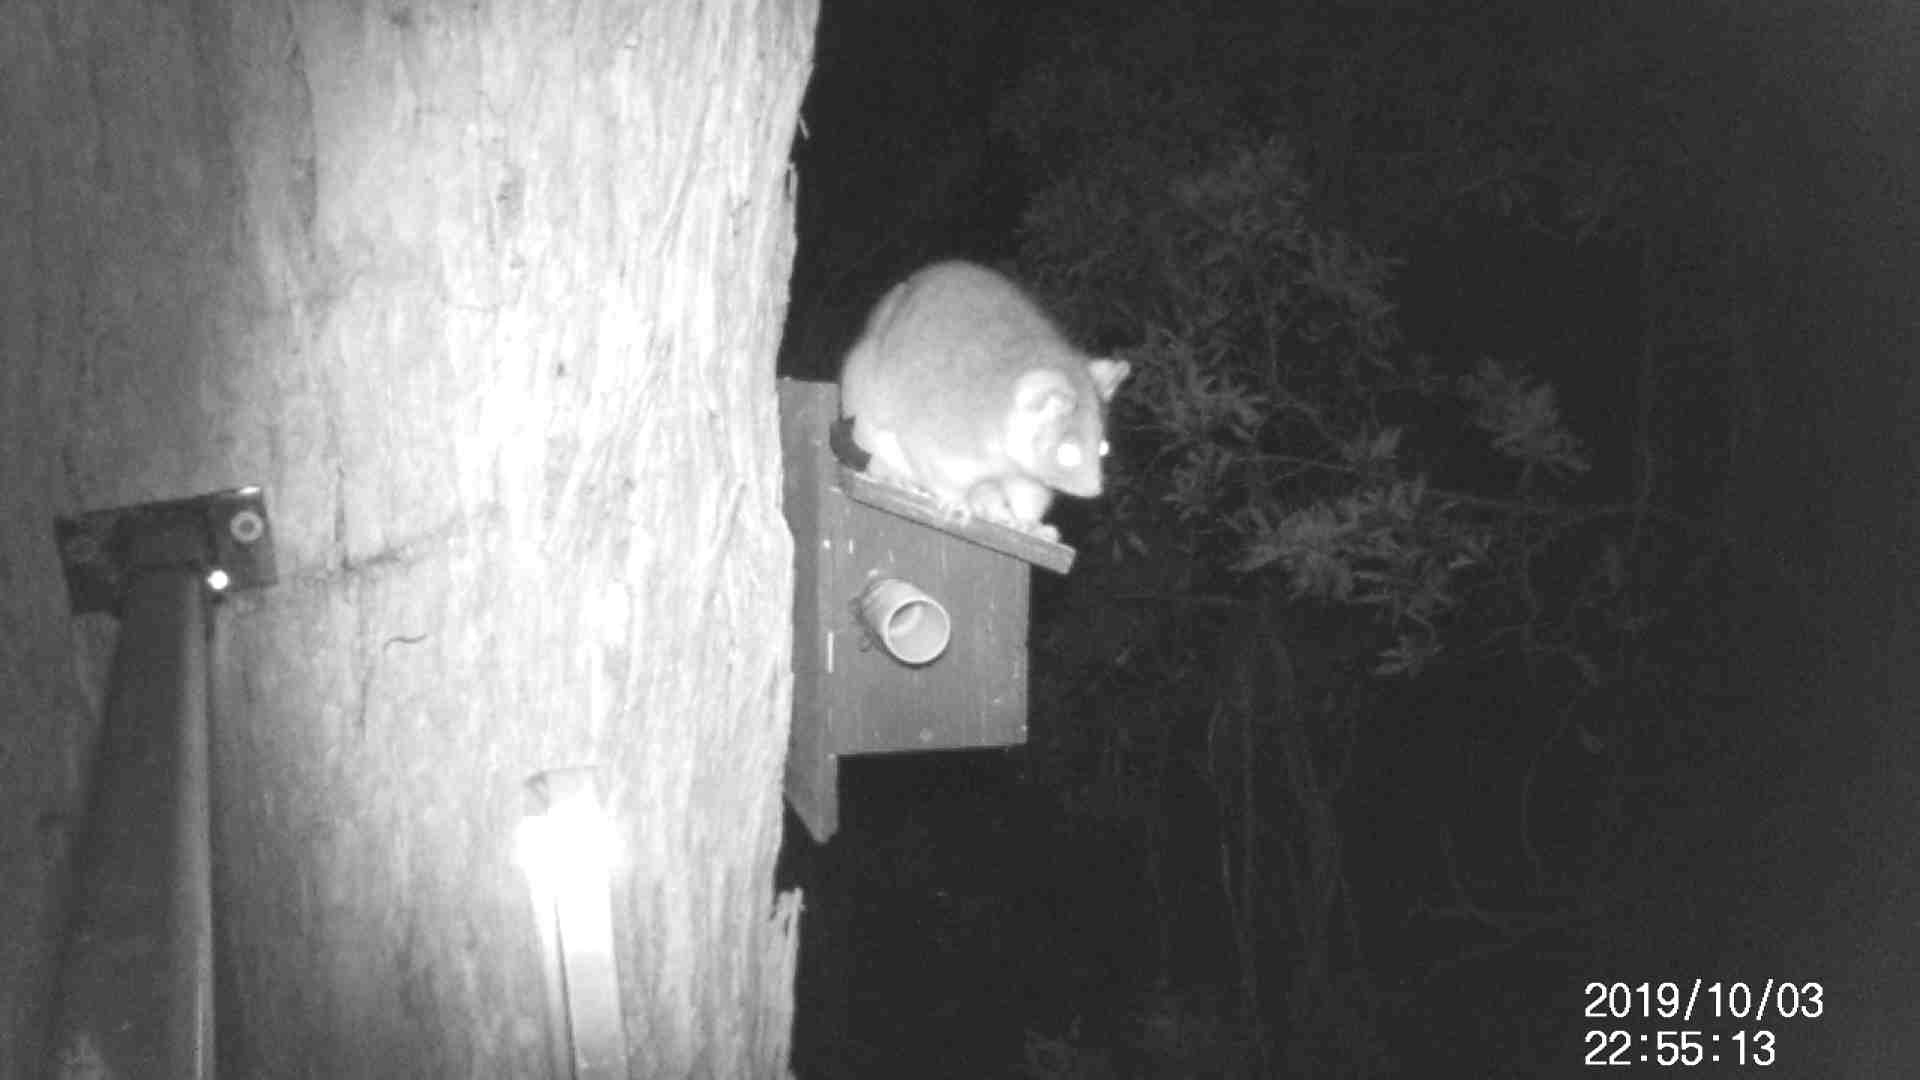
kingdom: Animalia
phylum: Chordata
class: Mammalia
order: Diprotodontia
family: Pseudocheiridae
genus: Pseudocheirus
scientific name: Pseudocheirus peregrinus
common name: Common ringtail possum
